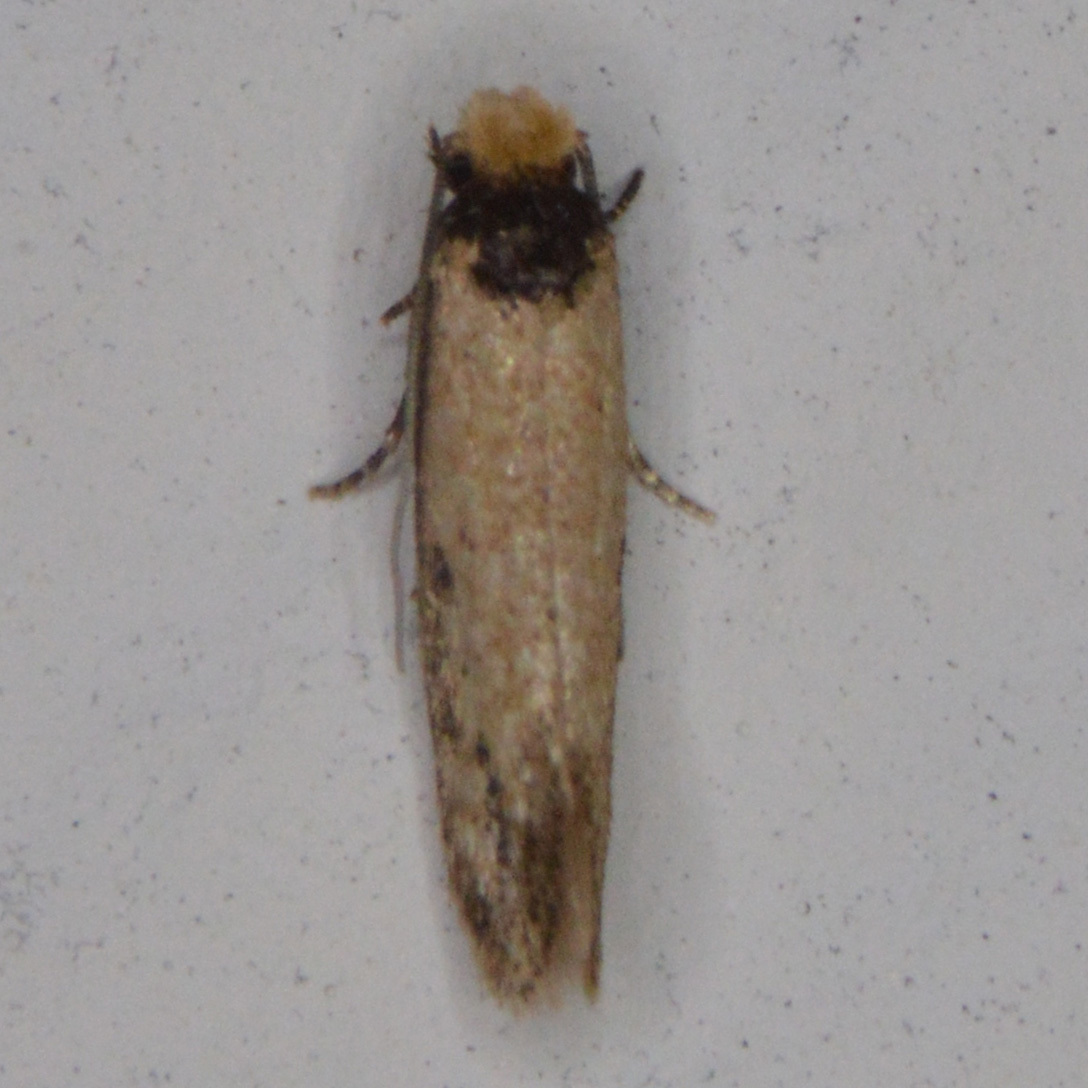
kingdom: Animalia
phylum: Arthropoda
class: Insecta
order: Lepidoptera
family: Meessiidae
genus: Homostinea
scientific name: Homostinea curviliniella
